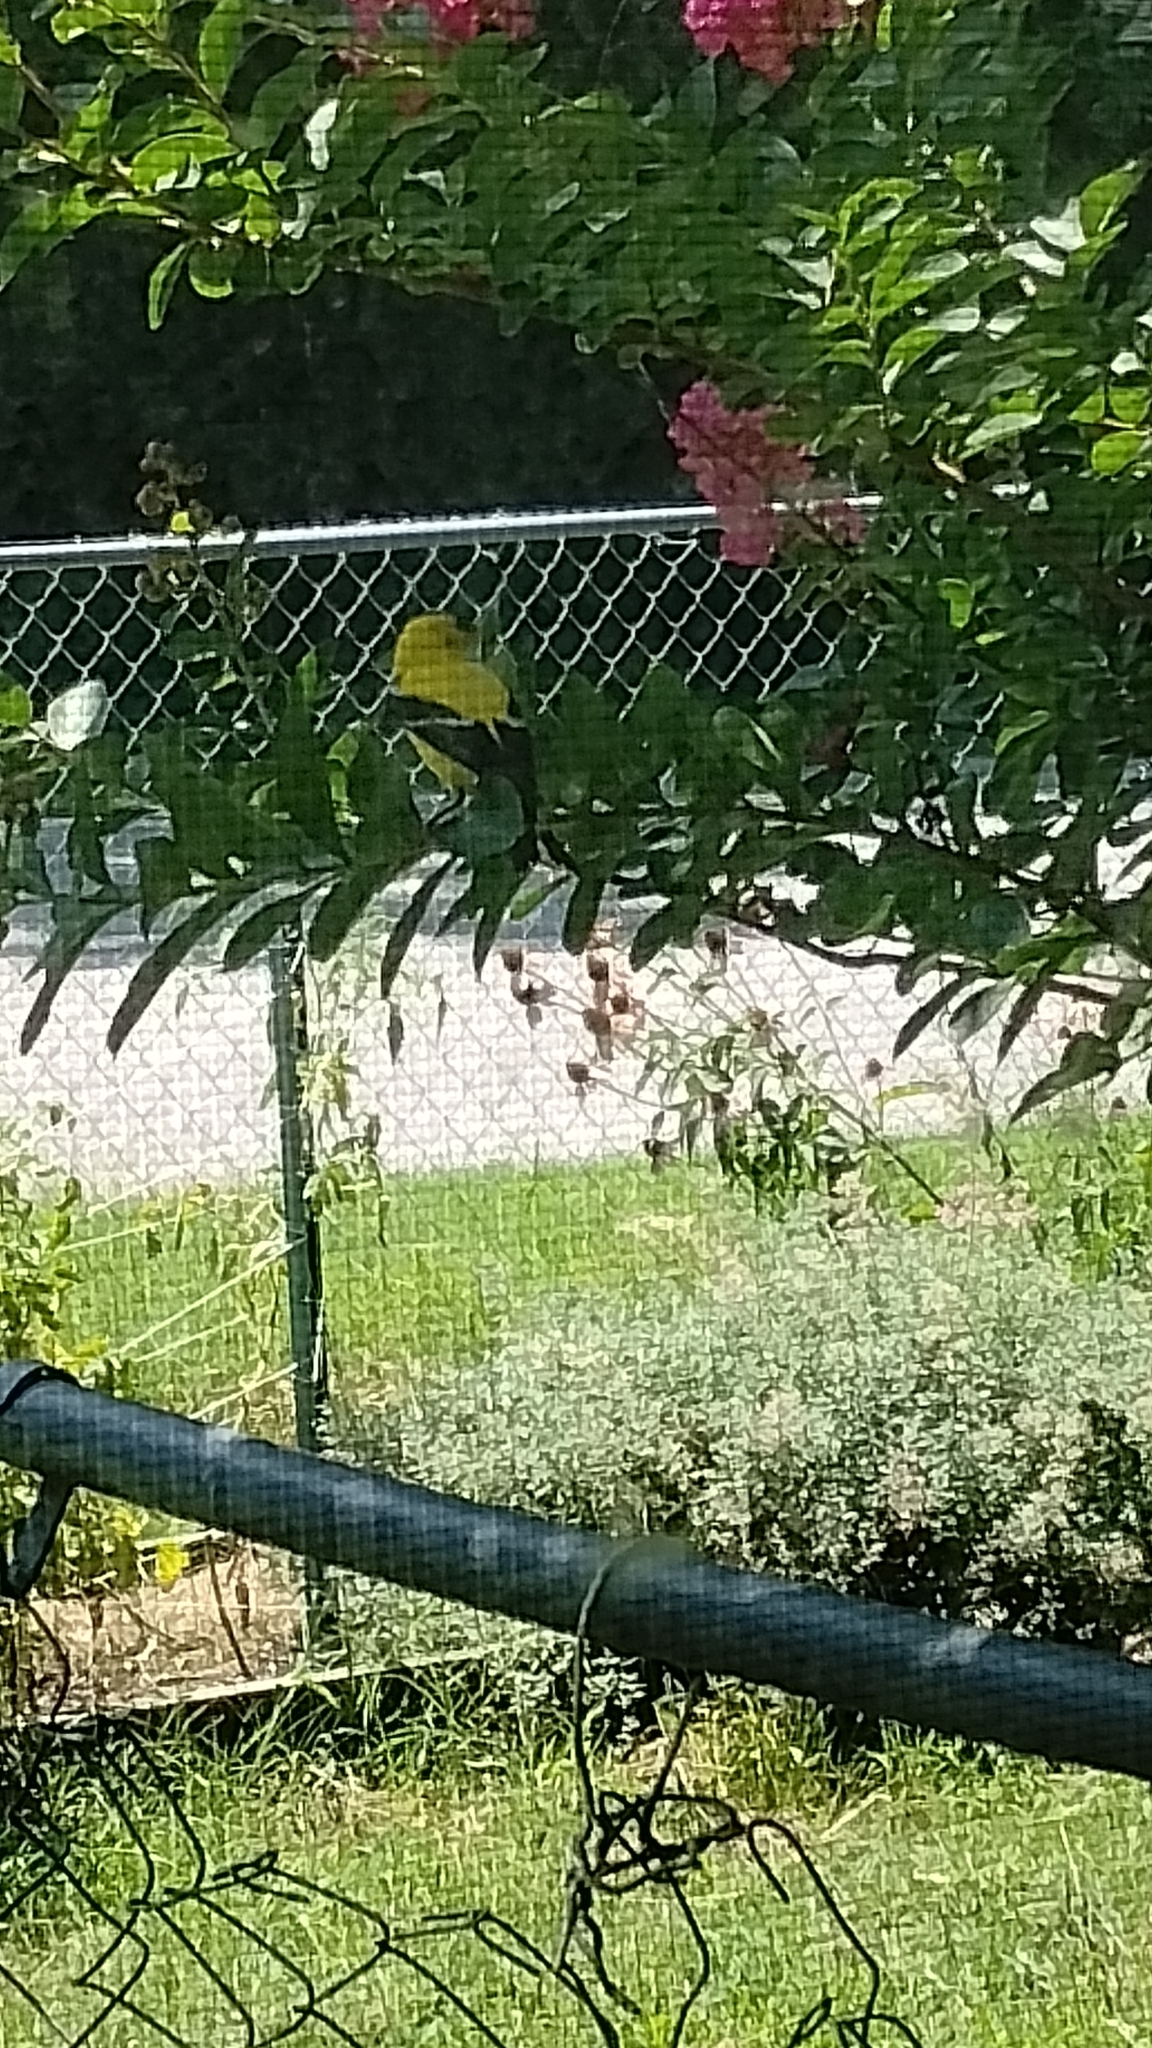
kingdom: Animalia
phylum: Chordata
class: Aves
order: Passeriformes
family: Fringillidae
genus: Spinus
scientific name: Spinus tristis
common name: American goldfinch
